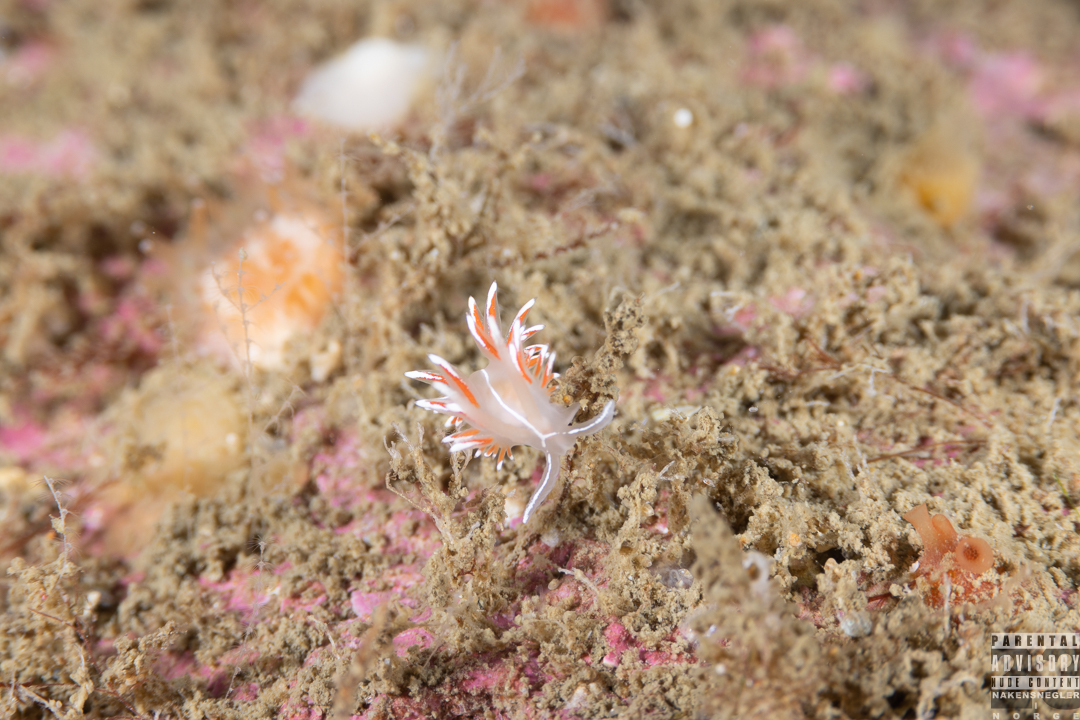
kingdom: Animalia
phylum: Mollusca
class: Gastropoda
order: Nudibranchia
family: Coryphellidae
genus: Coryphella
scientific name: Coryphella lineata
